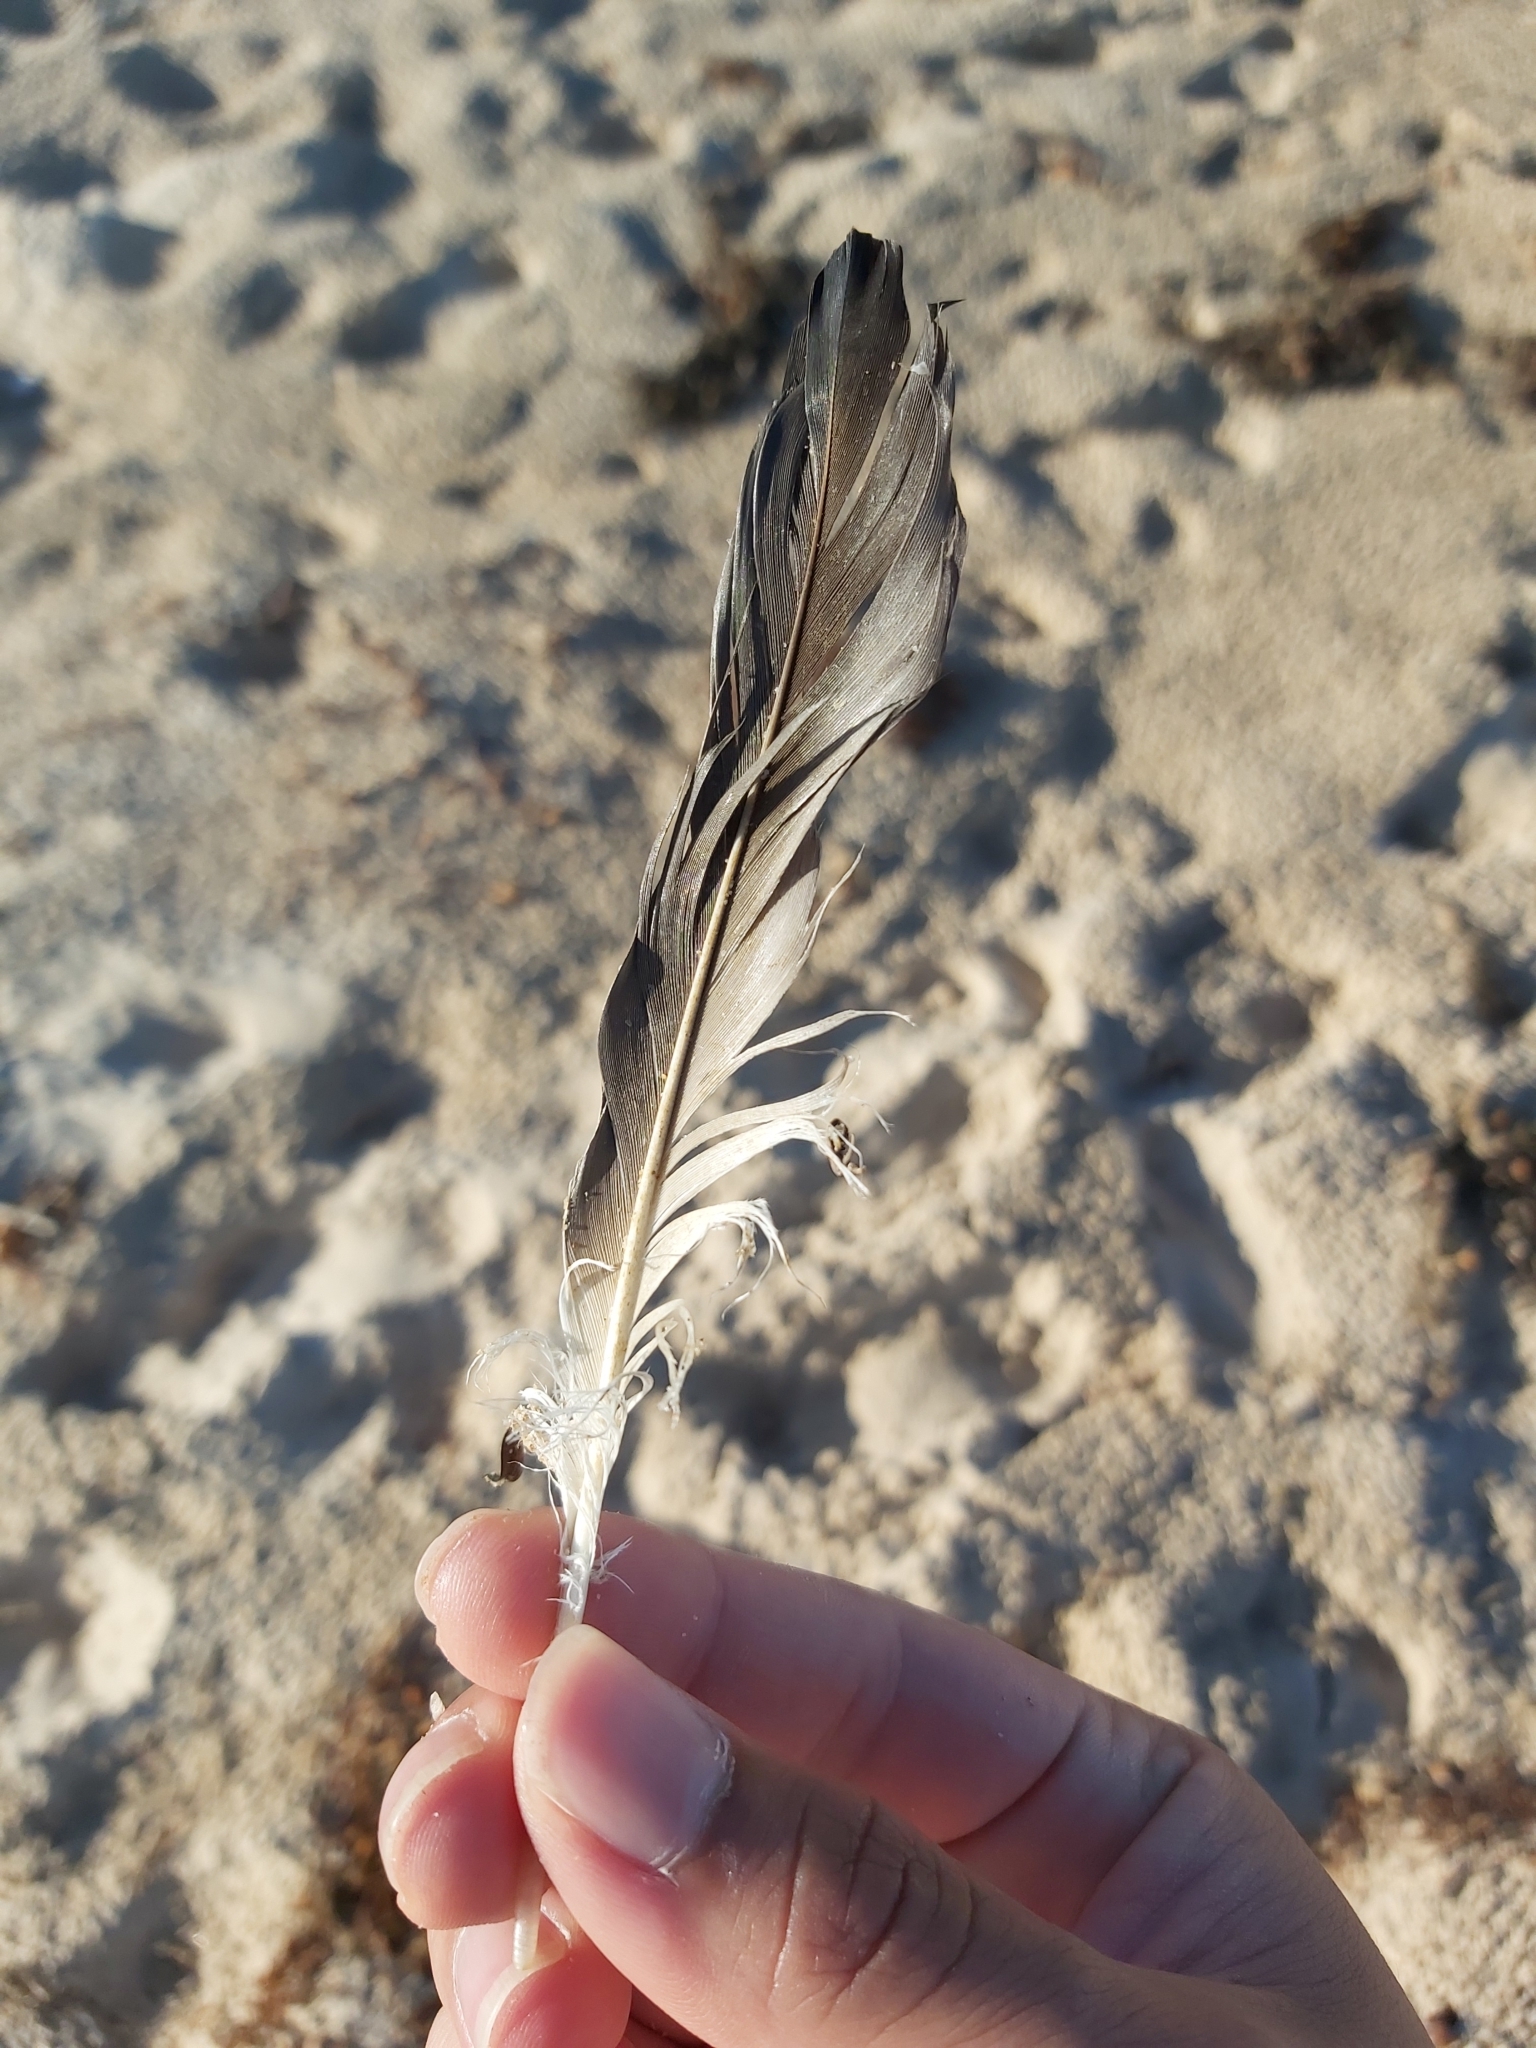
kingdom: Animalia
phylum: Chordata
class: Aves
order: Suliformes
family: Sulidae
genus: Morus
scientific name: Morus serrator
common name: Australasian gannet
